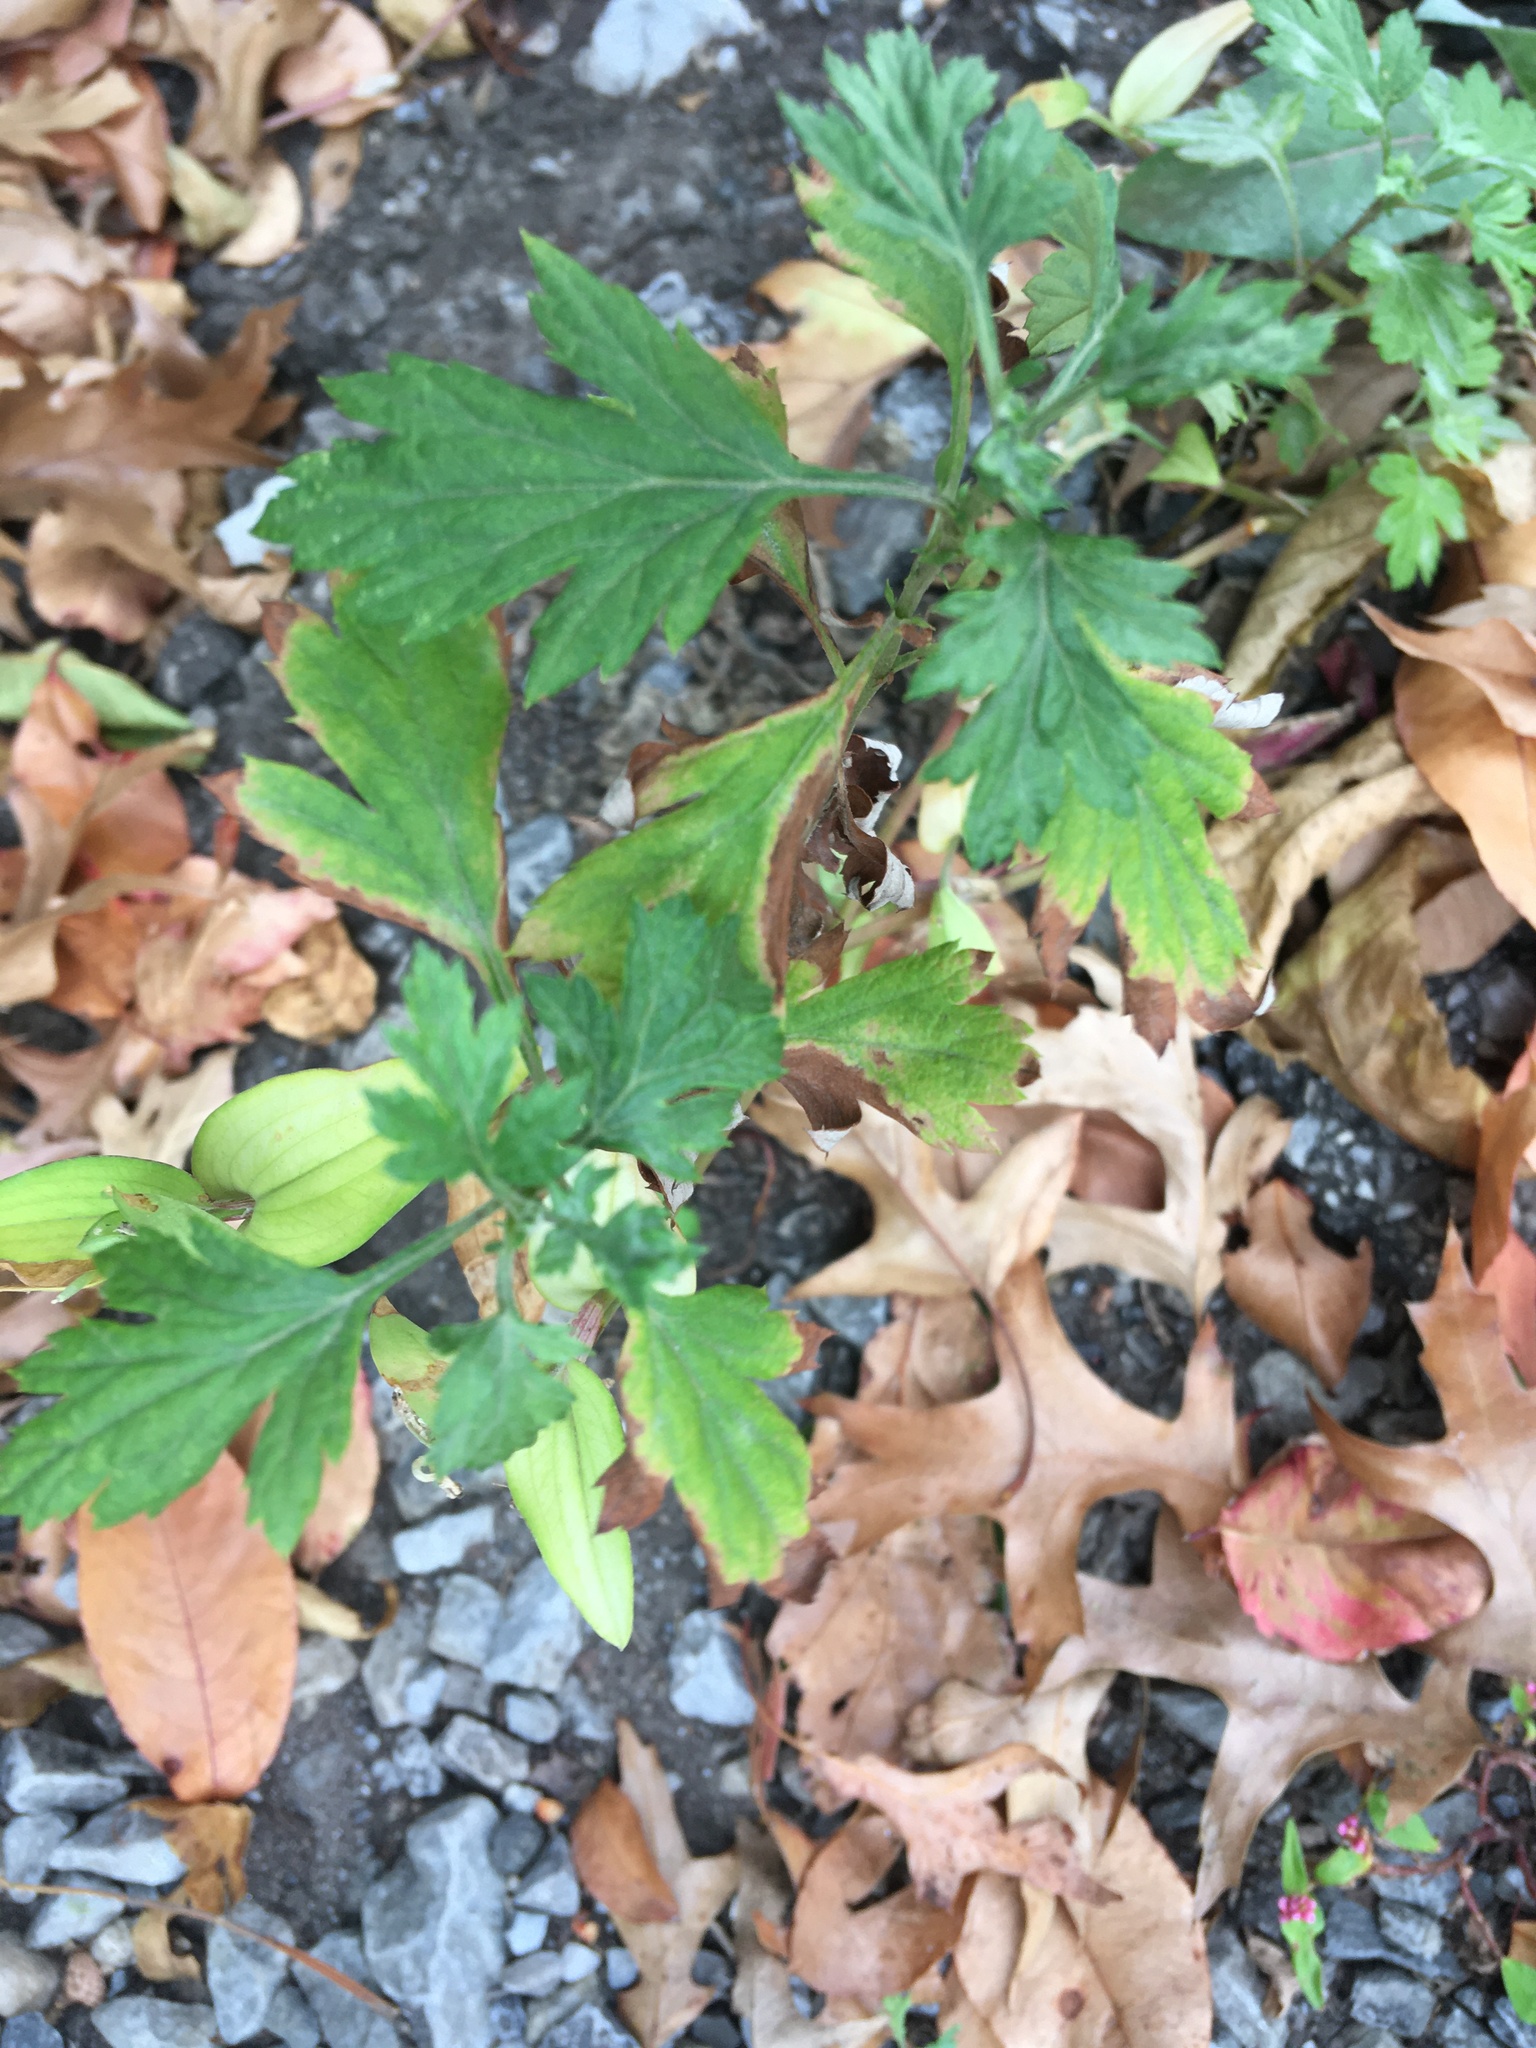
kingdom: Plantae
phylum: Tracheophyta
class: Magnoliopsida
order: Asterales
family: Asteraceae
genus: Artemisia
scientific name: Artemisia vulgaris
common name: Mugwort
